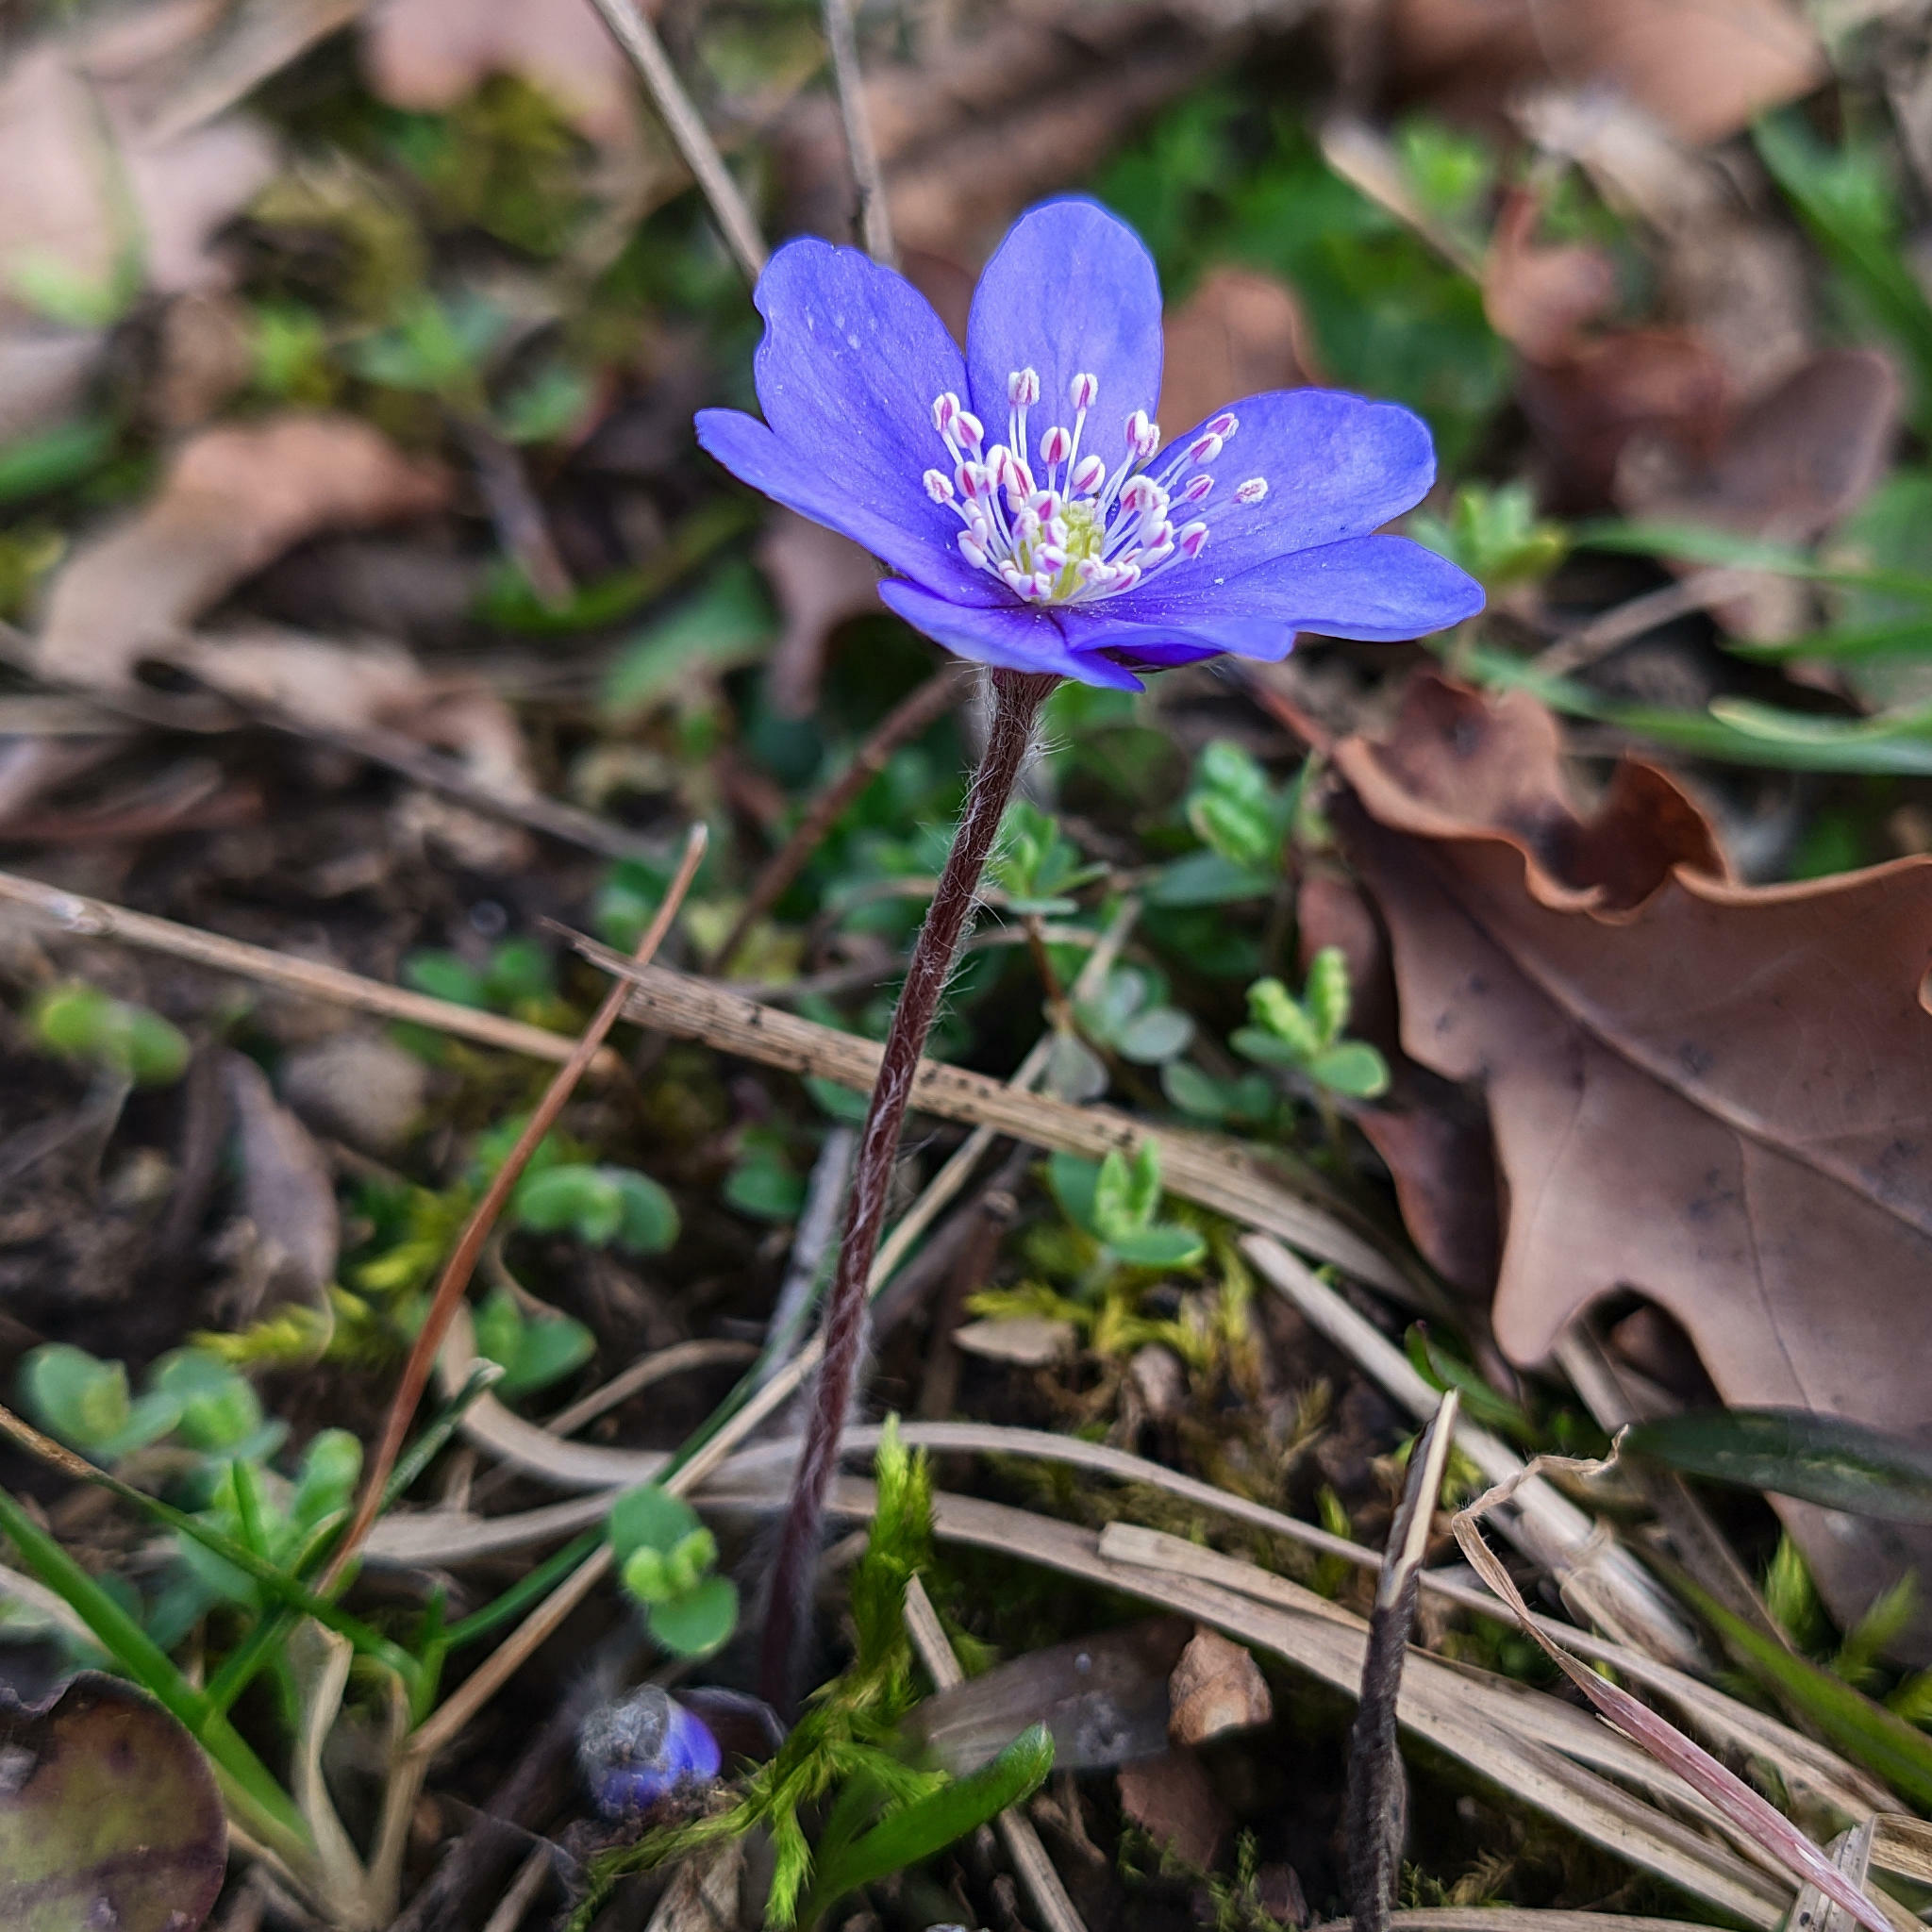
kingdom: Plantae
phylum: Tracheophyta
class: Magnoliopsida
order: Ranunculales
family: Ranunculaceae
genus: Hepatica
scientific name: Hepatica nobilis
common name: Liverleaf
